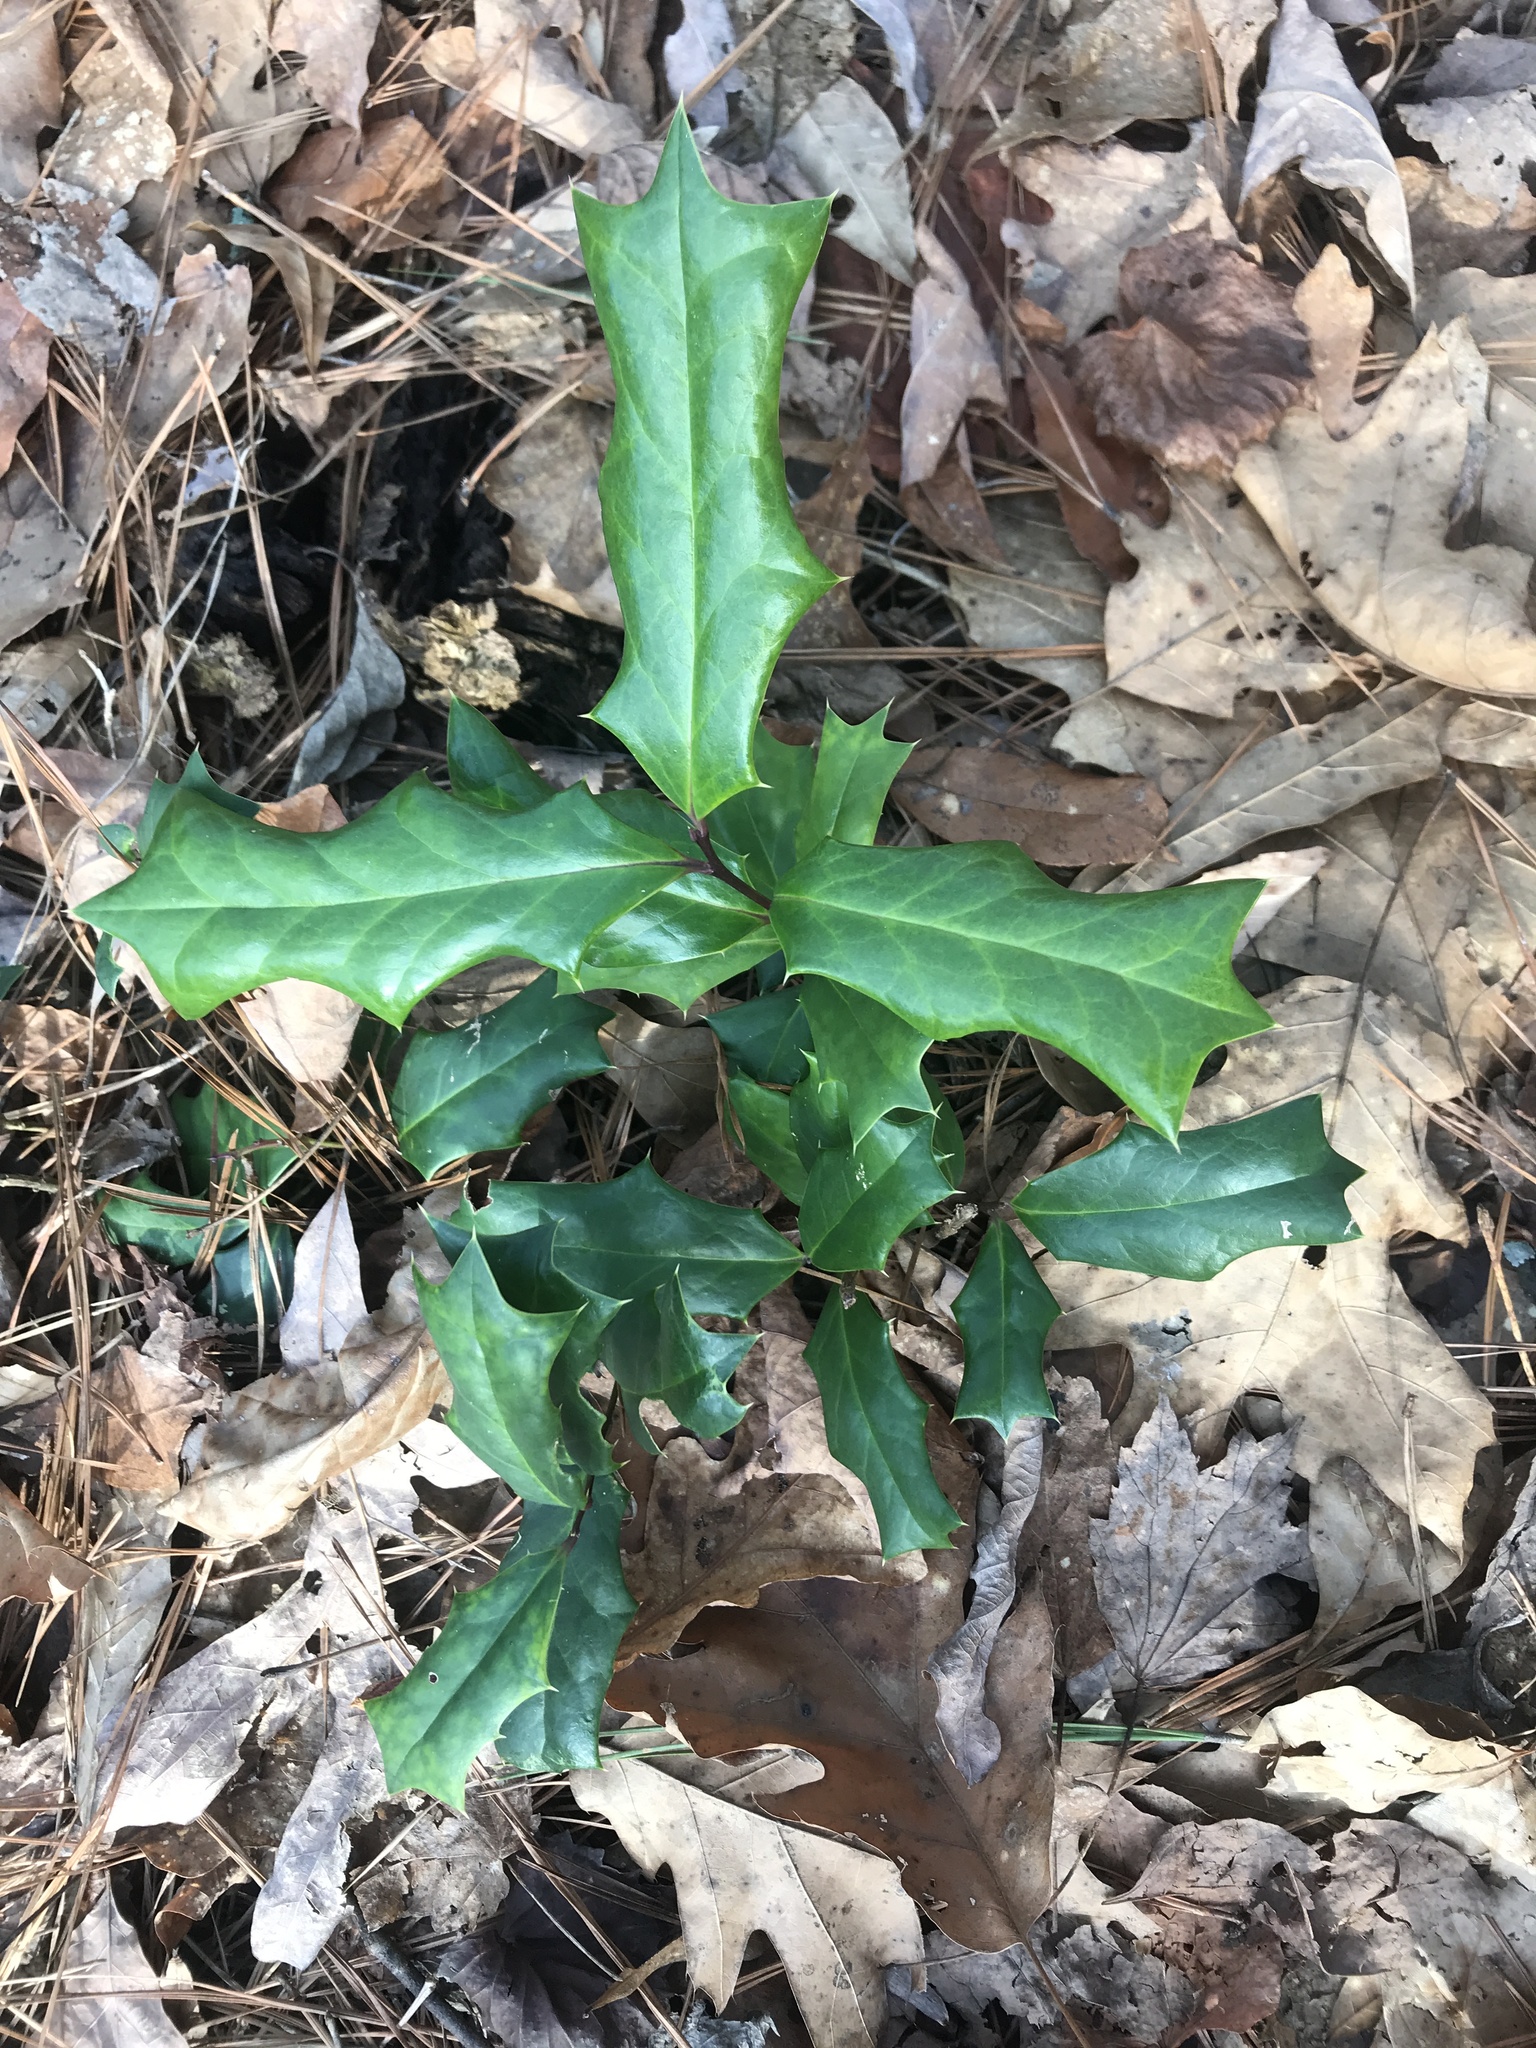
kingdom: Plantae
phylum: Tracheophyta
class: Magnoliopsida
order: Aquifoliales
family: Aquifoliaceae
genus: Ilex
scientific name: Ilex cornuta
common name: Chinese holly
